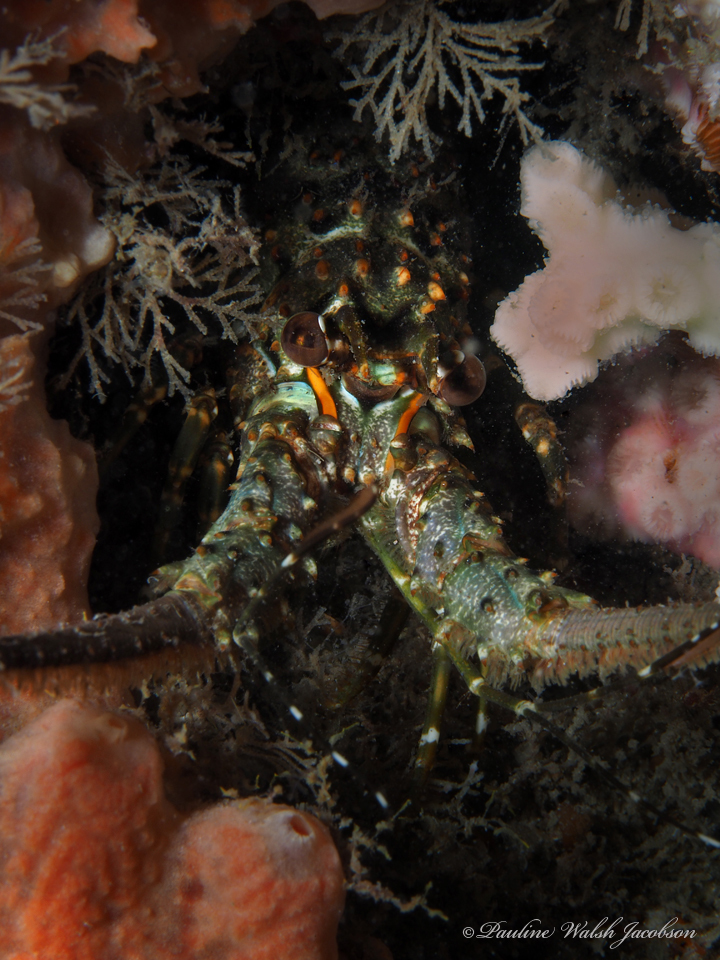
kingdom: Animalia
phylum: Arthropoda
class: Malacostraca
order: Decapoda
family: Palinuridae
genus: Panulirus
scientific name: Panulirus argus
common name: Caribbean spiny lobster
